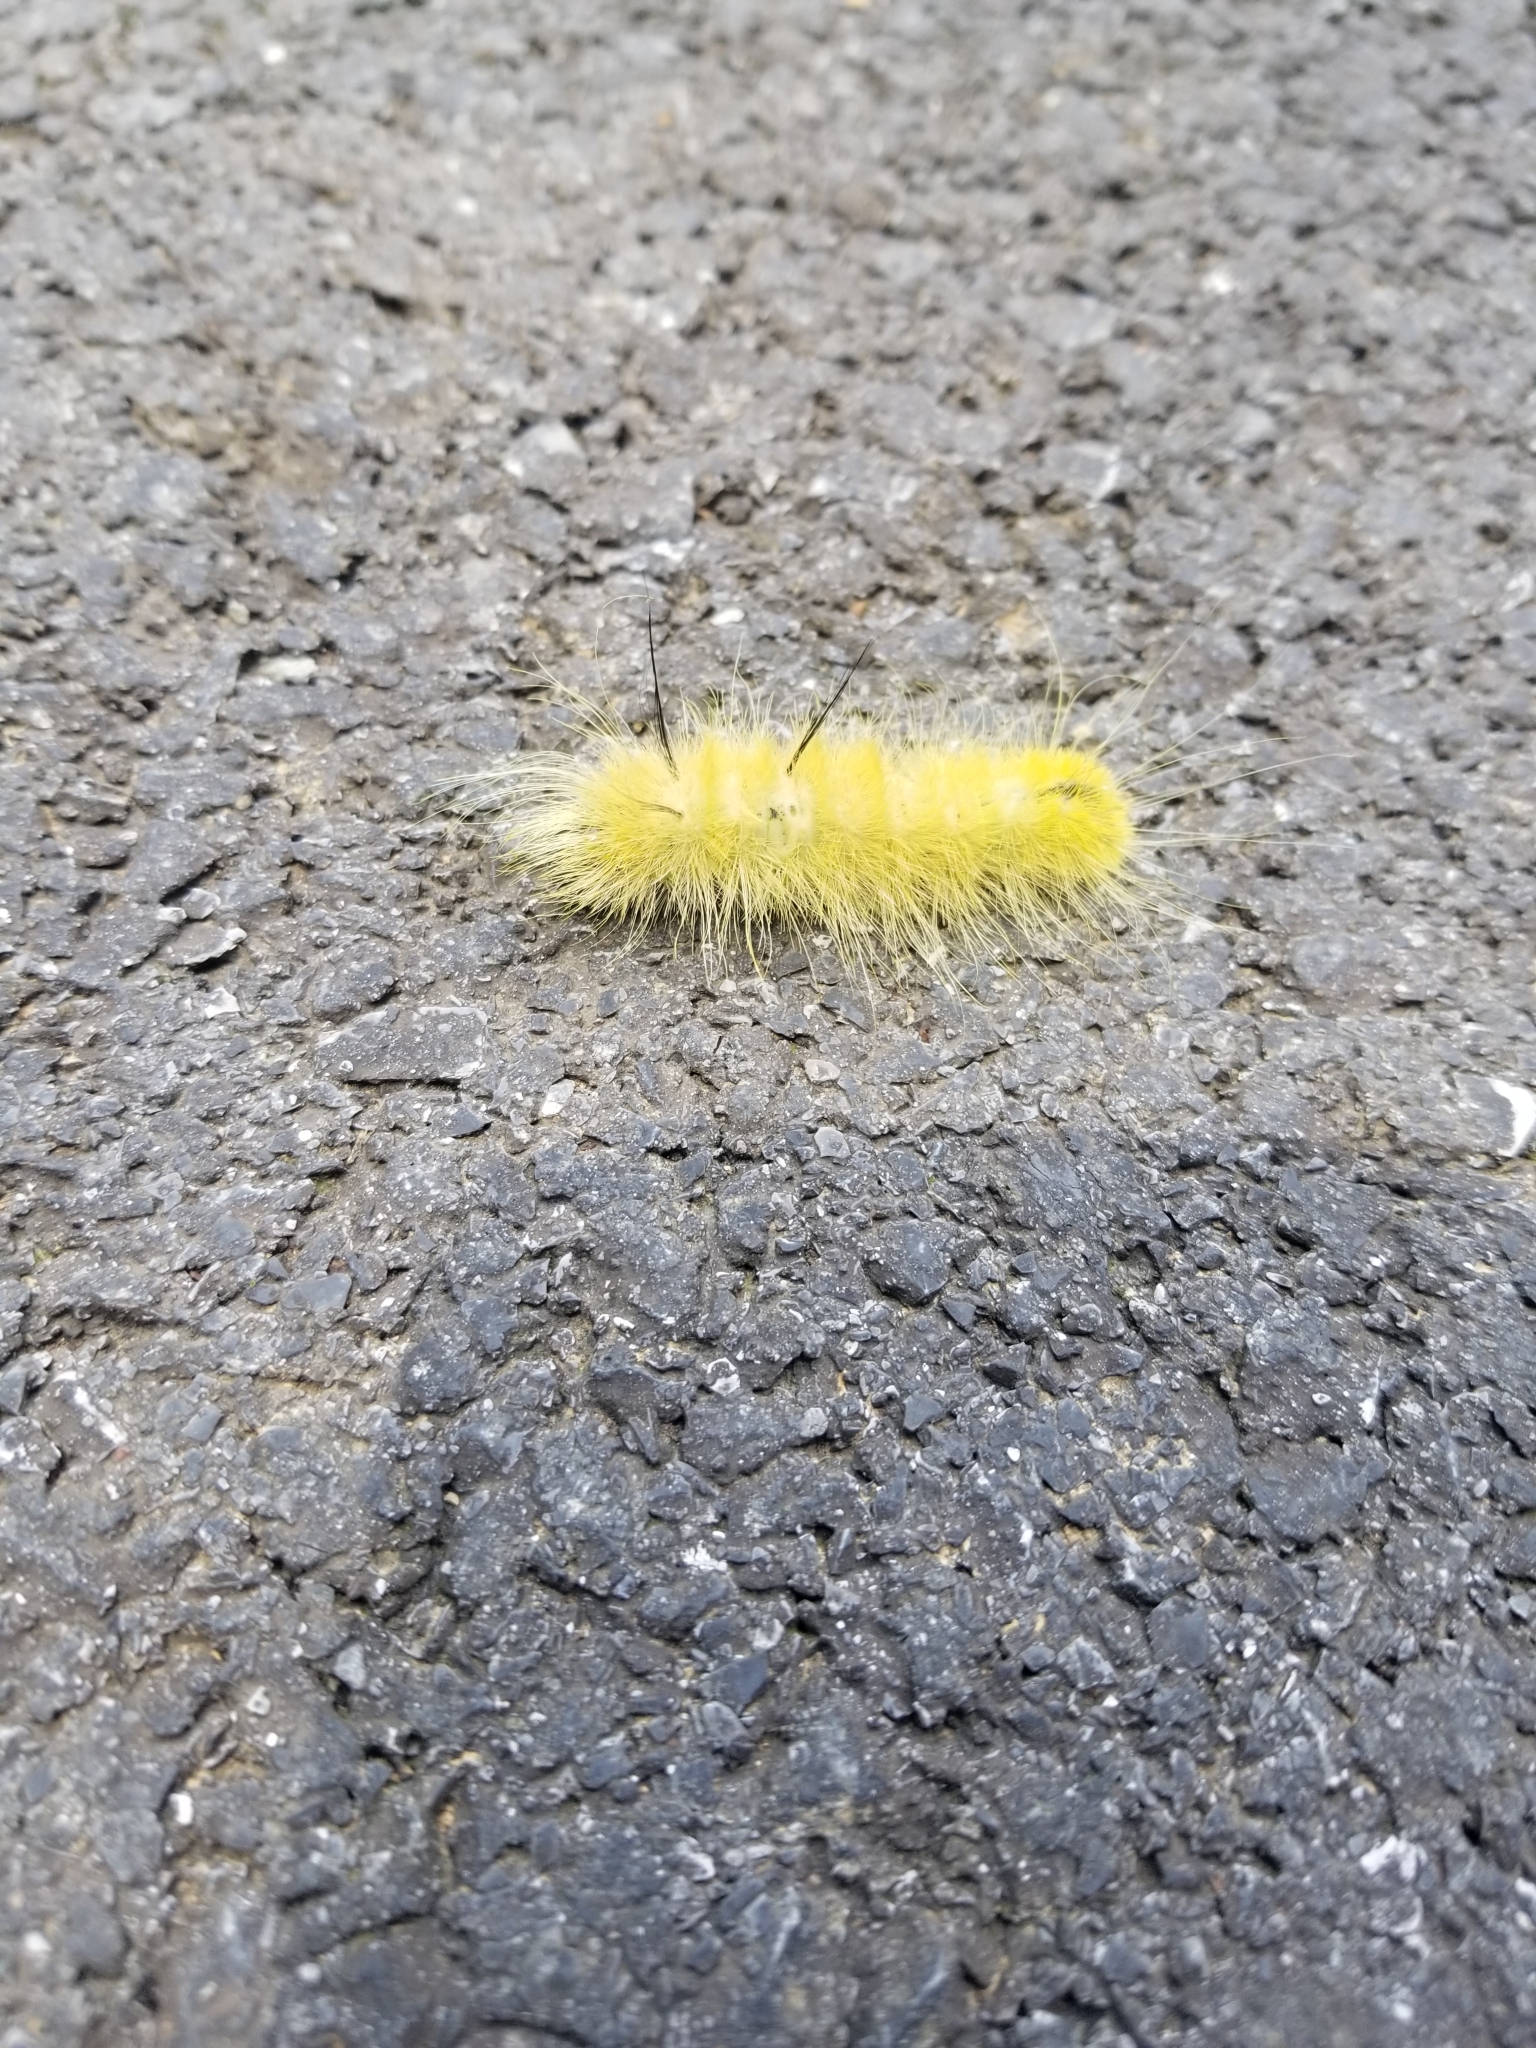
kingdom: Animalia
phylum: Arthropoda
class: Insecta
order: Lepidoptera
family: Noctuidae
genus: Acronicta
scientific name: Acronicta americana
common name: American dagger
